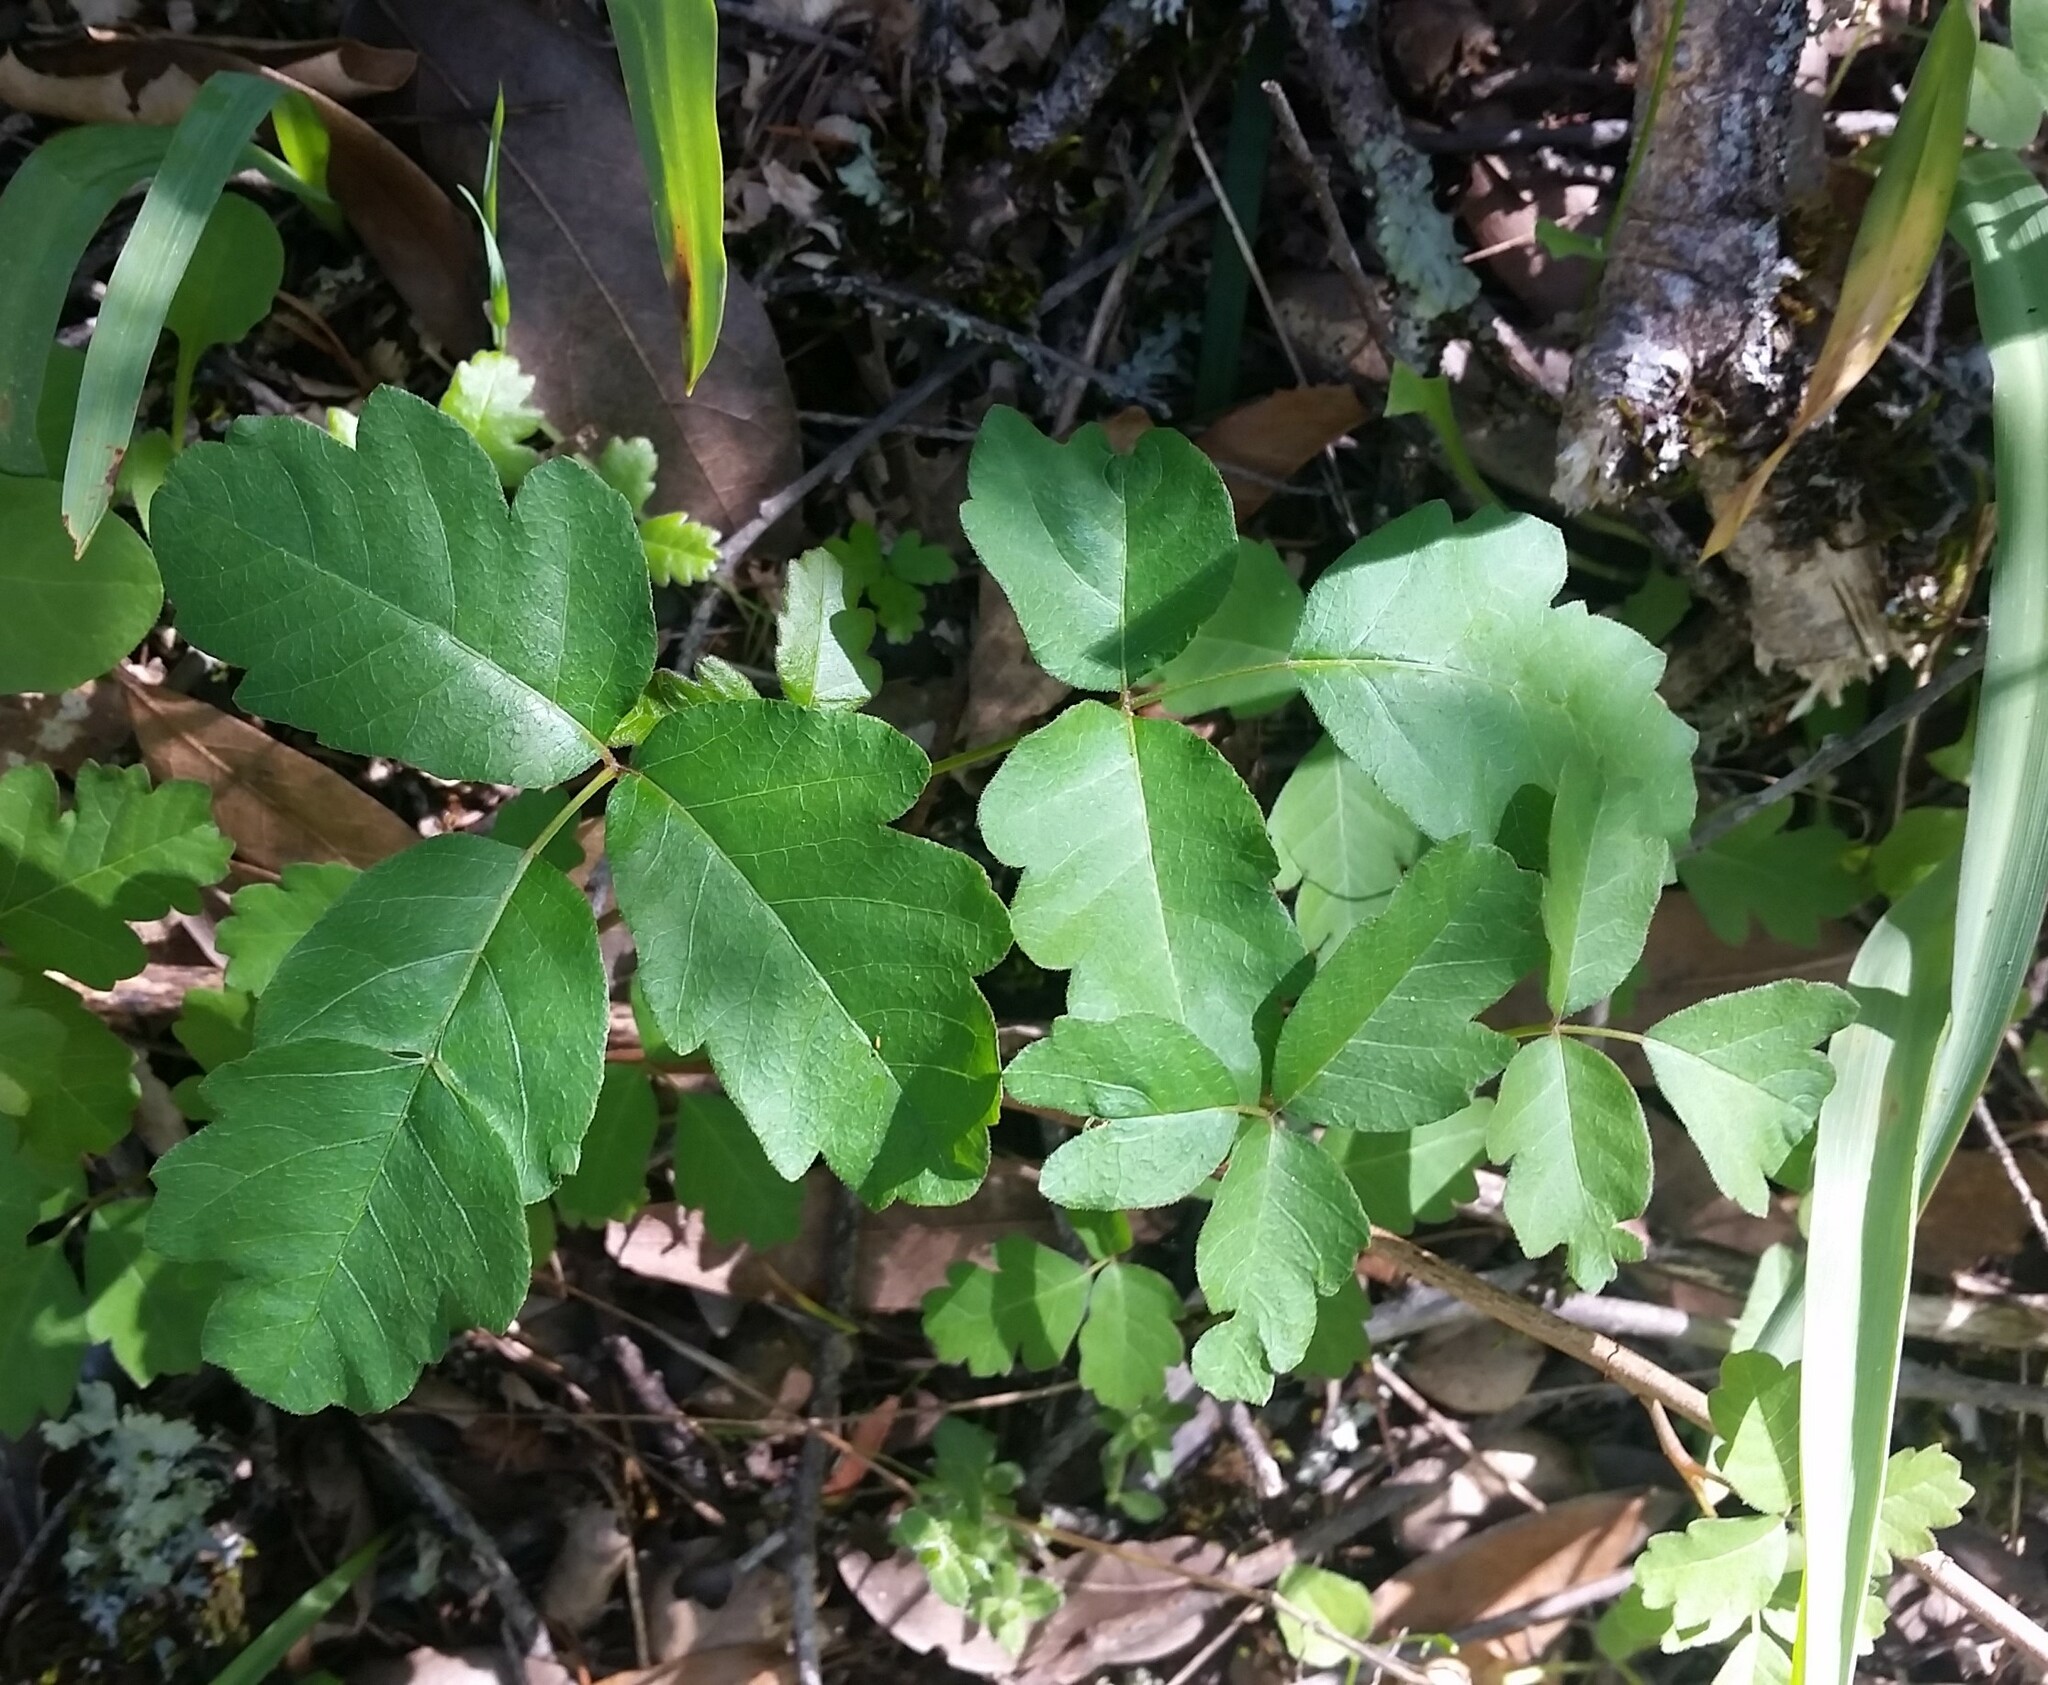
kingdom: Plantae
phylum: Tracheophyta
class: Magnoliopsida
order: Sapindales
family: Anacardiaceae
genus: Toxicodendron
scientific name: Toxicodendron diversilobum
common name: Pacific poison-oak
